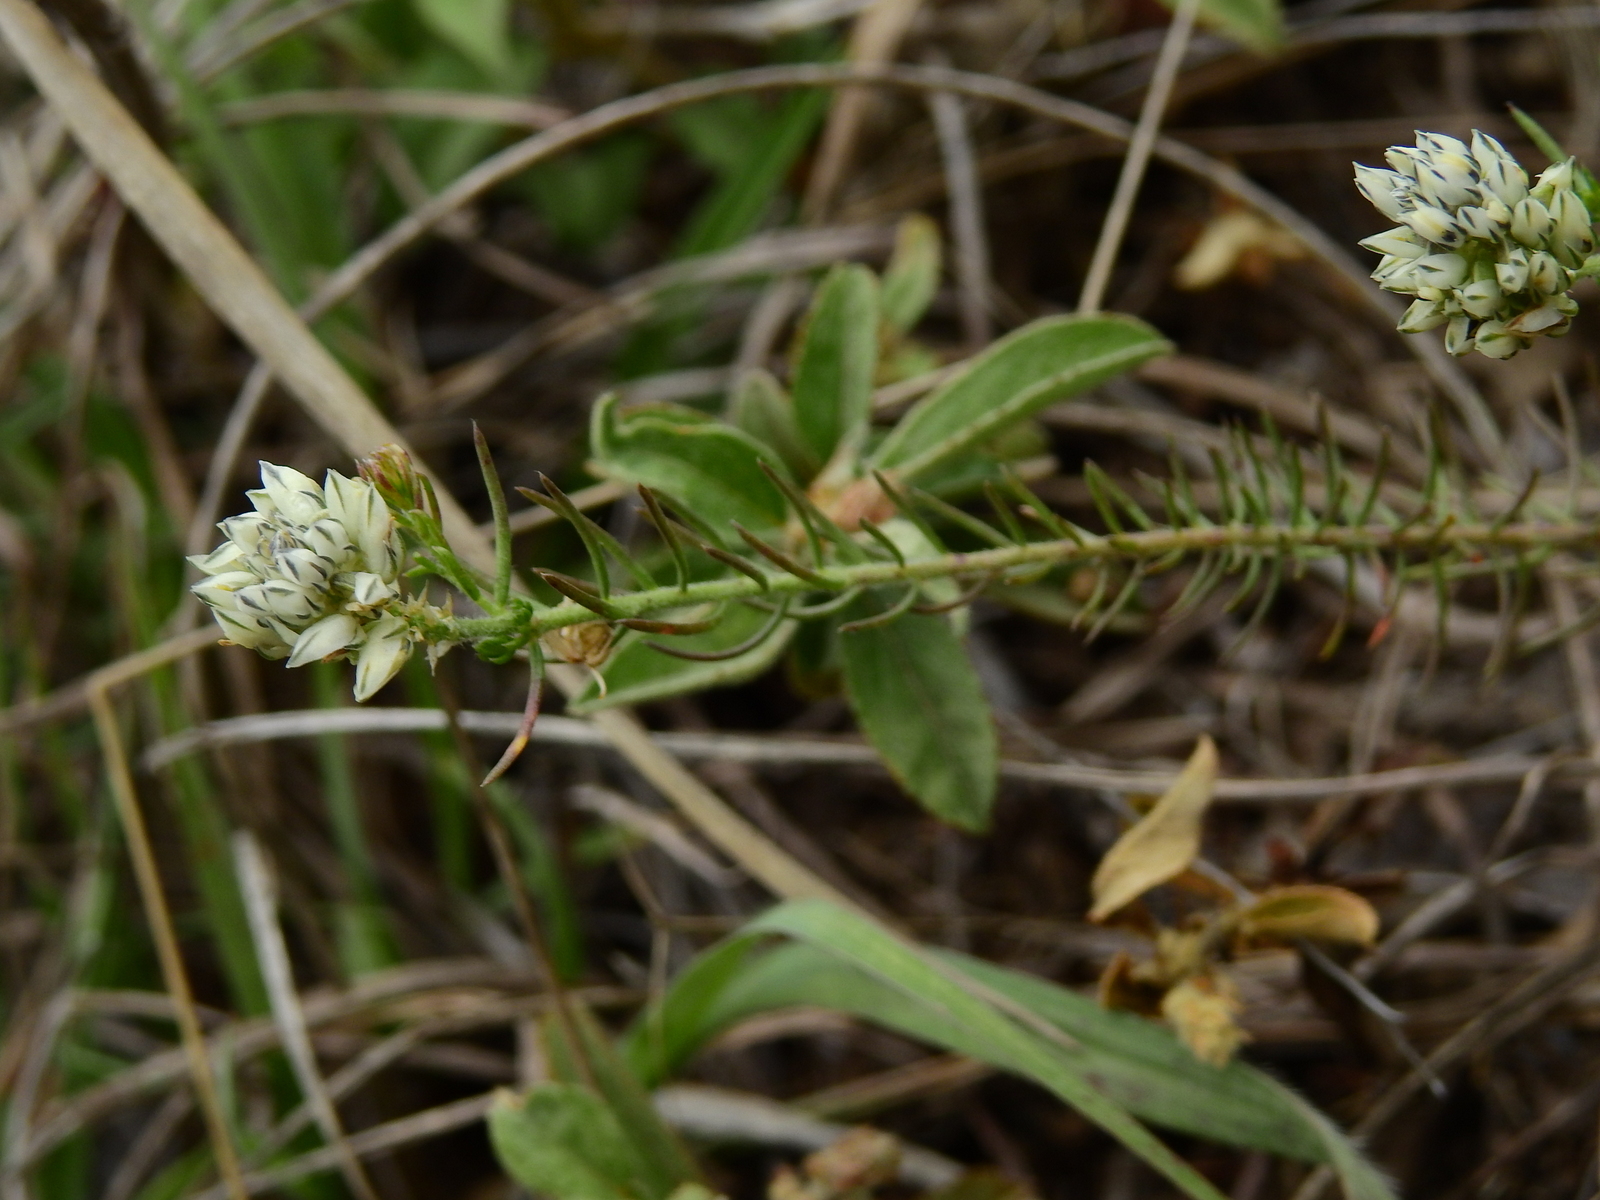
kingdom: Plantae
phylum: Tracheophyta
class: Magnoliopsida
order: Fabales
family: Polygalaceae
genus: Polygala
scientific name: Polygala aspalatha
